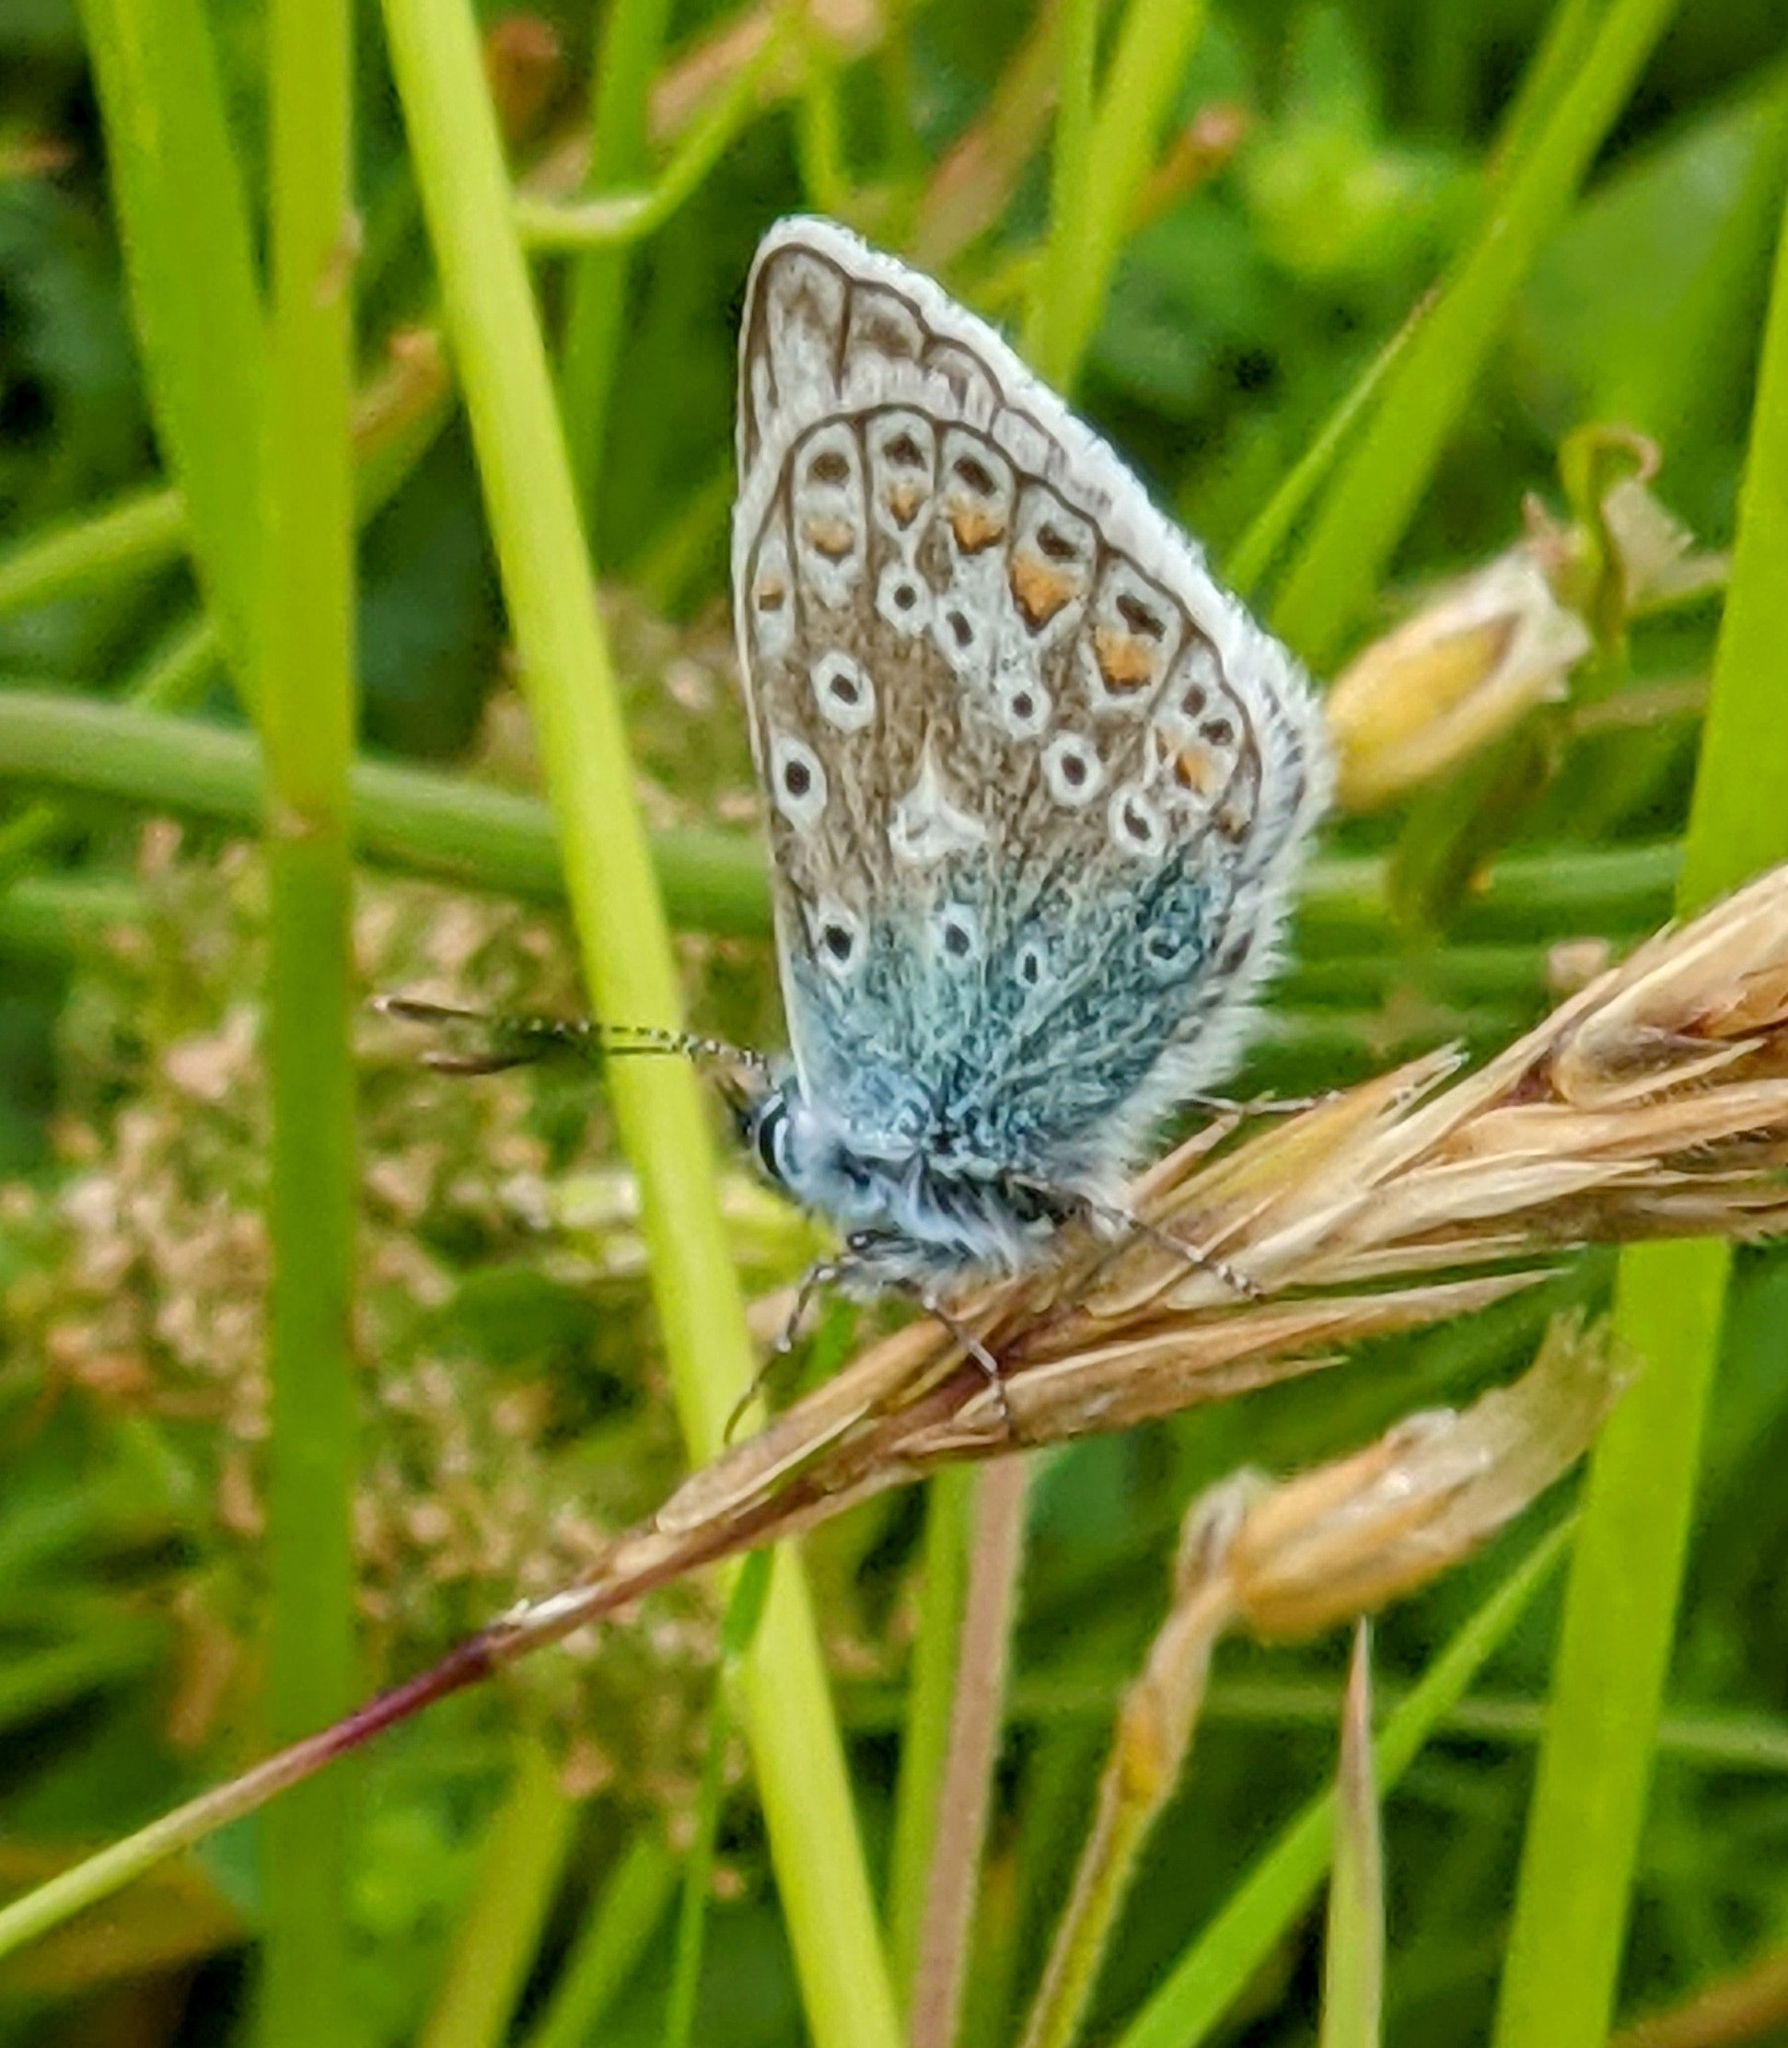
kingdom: Animalia
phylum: Arthropoda
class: Insecta
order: Lepidoptera
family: Lycaenidae
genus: Polyommatus
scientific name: Polyommatus icarus
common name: Common blue
